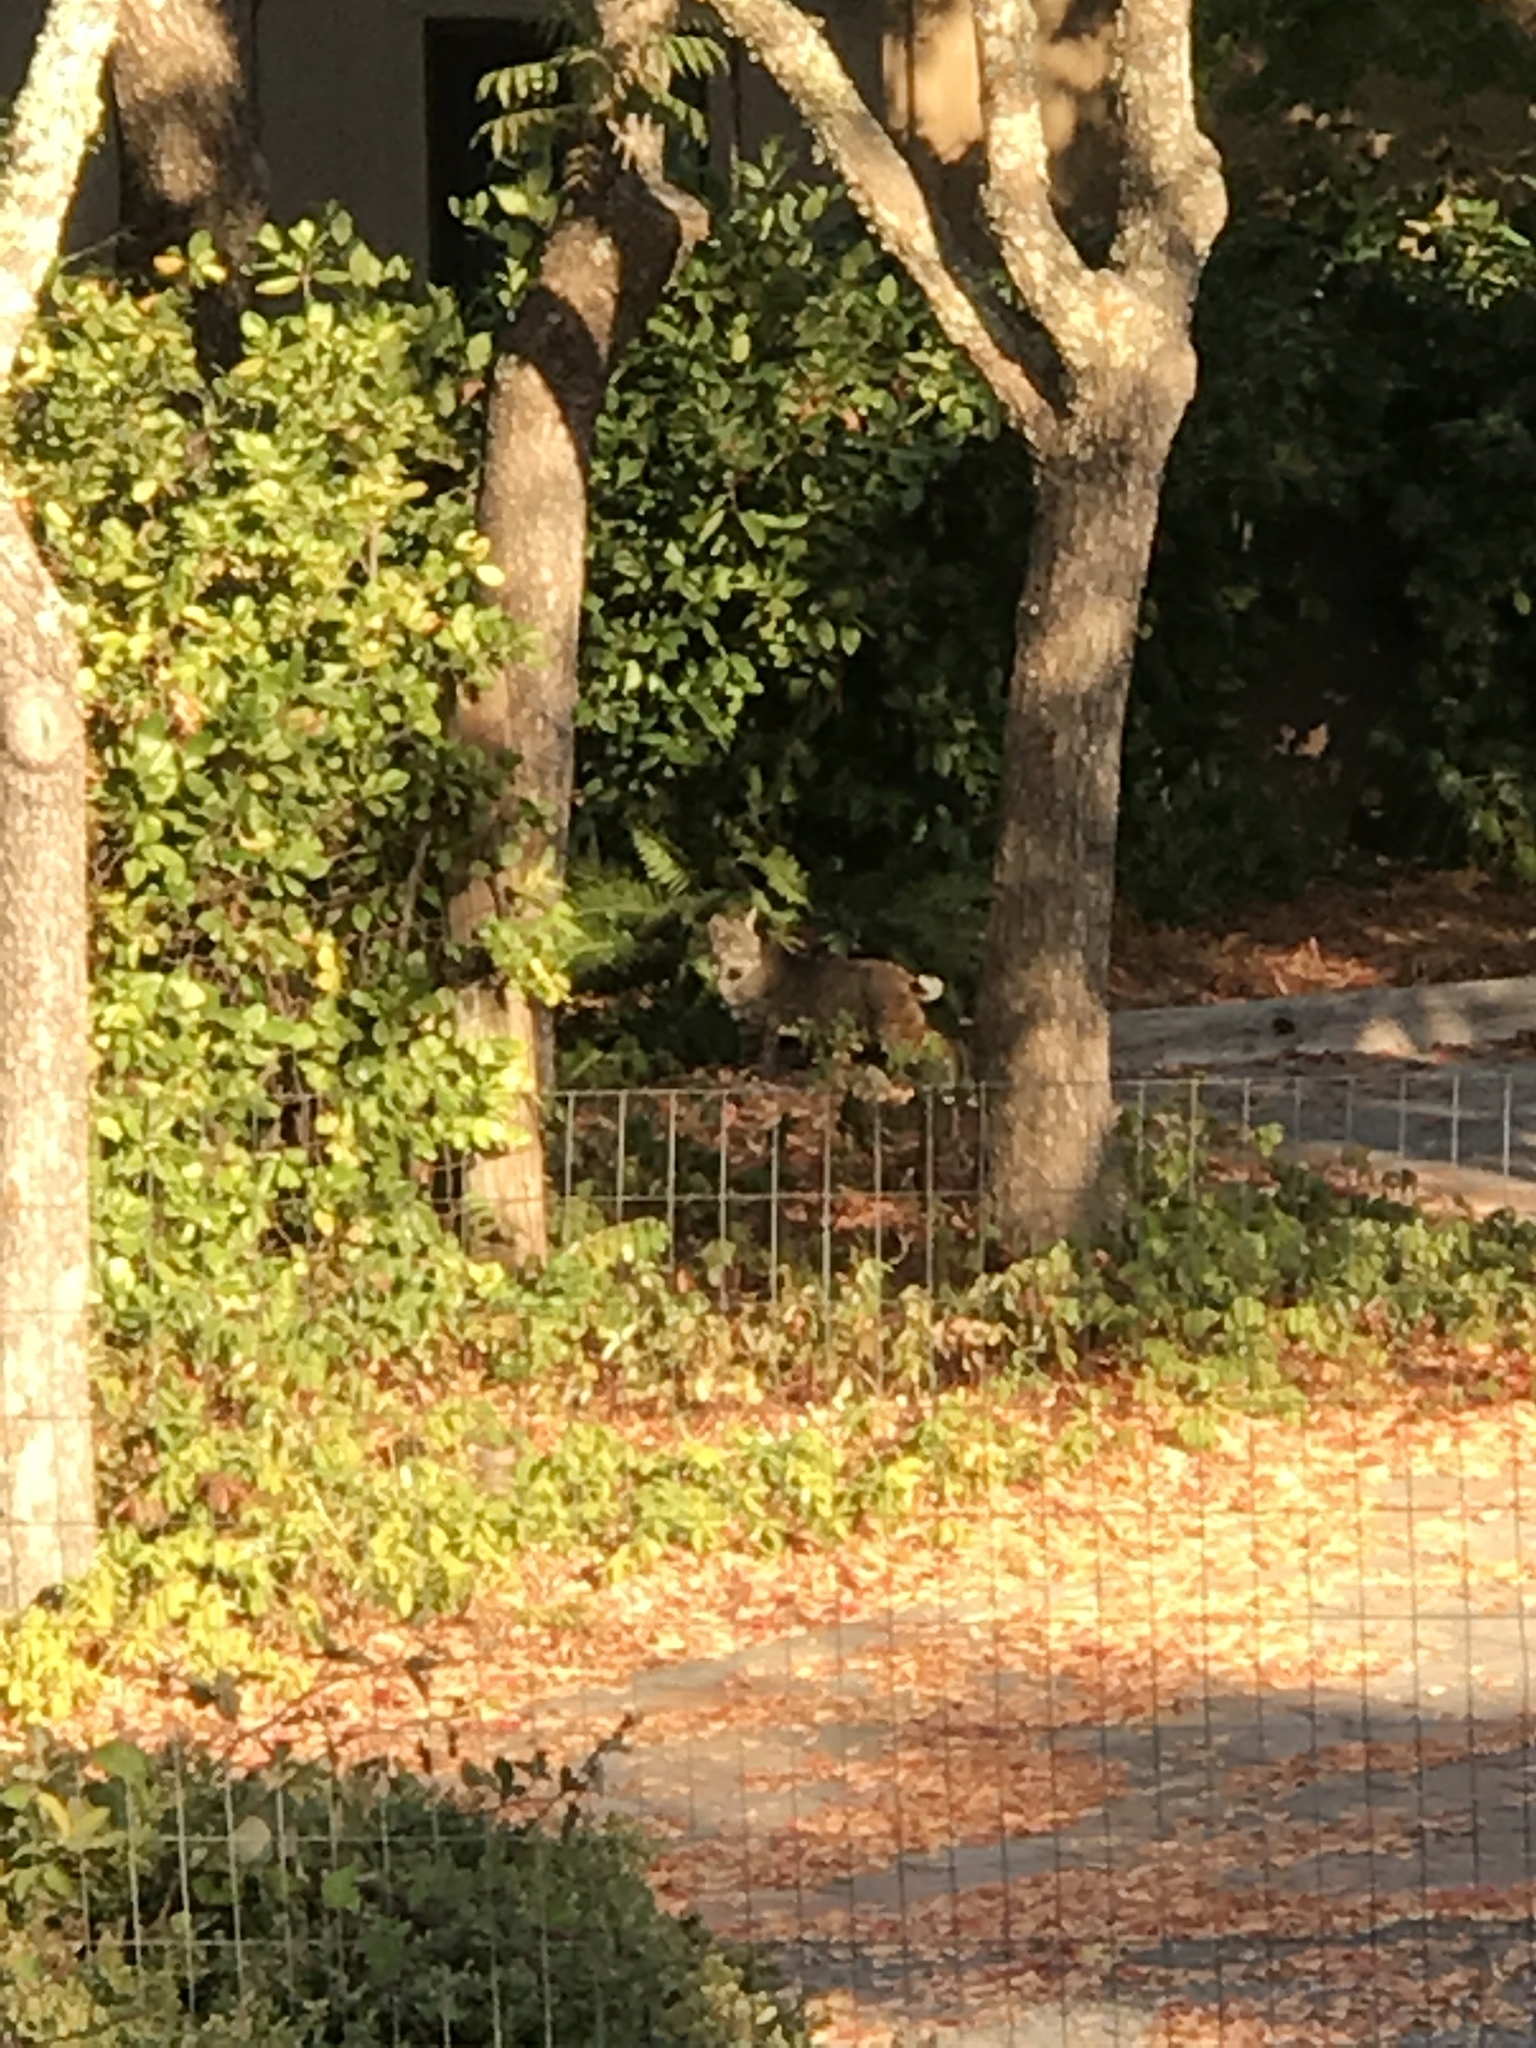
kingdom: Animalia
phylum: Chordata
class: Mammalia
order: Carnivora
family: Felidae
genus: Lynx
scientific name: Lynx rufus
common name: Bobcat
